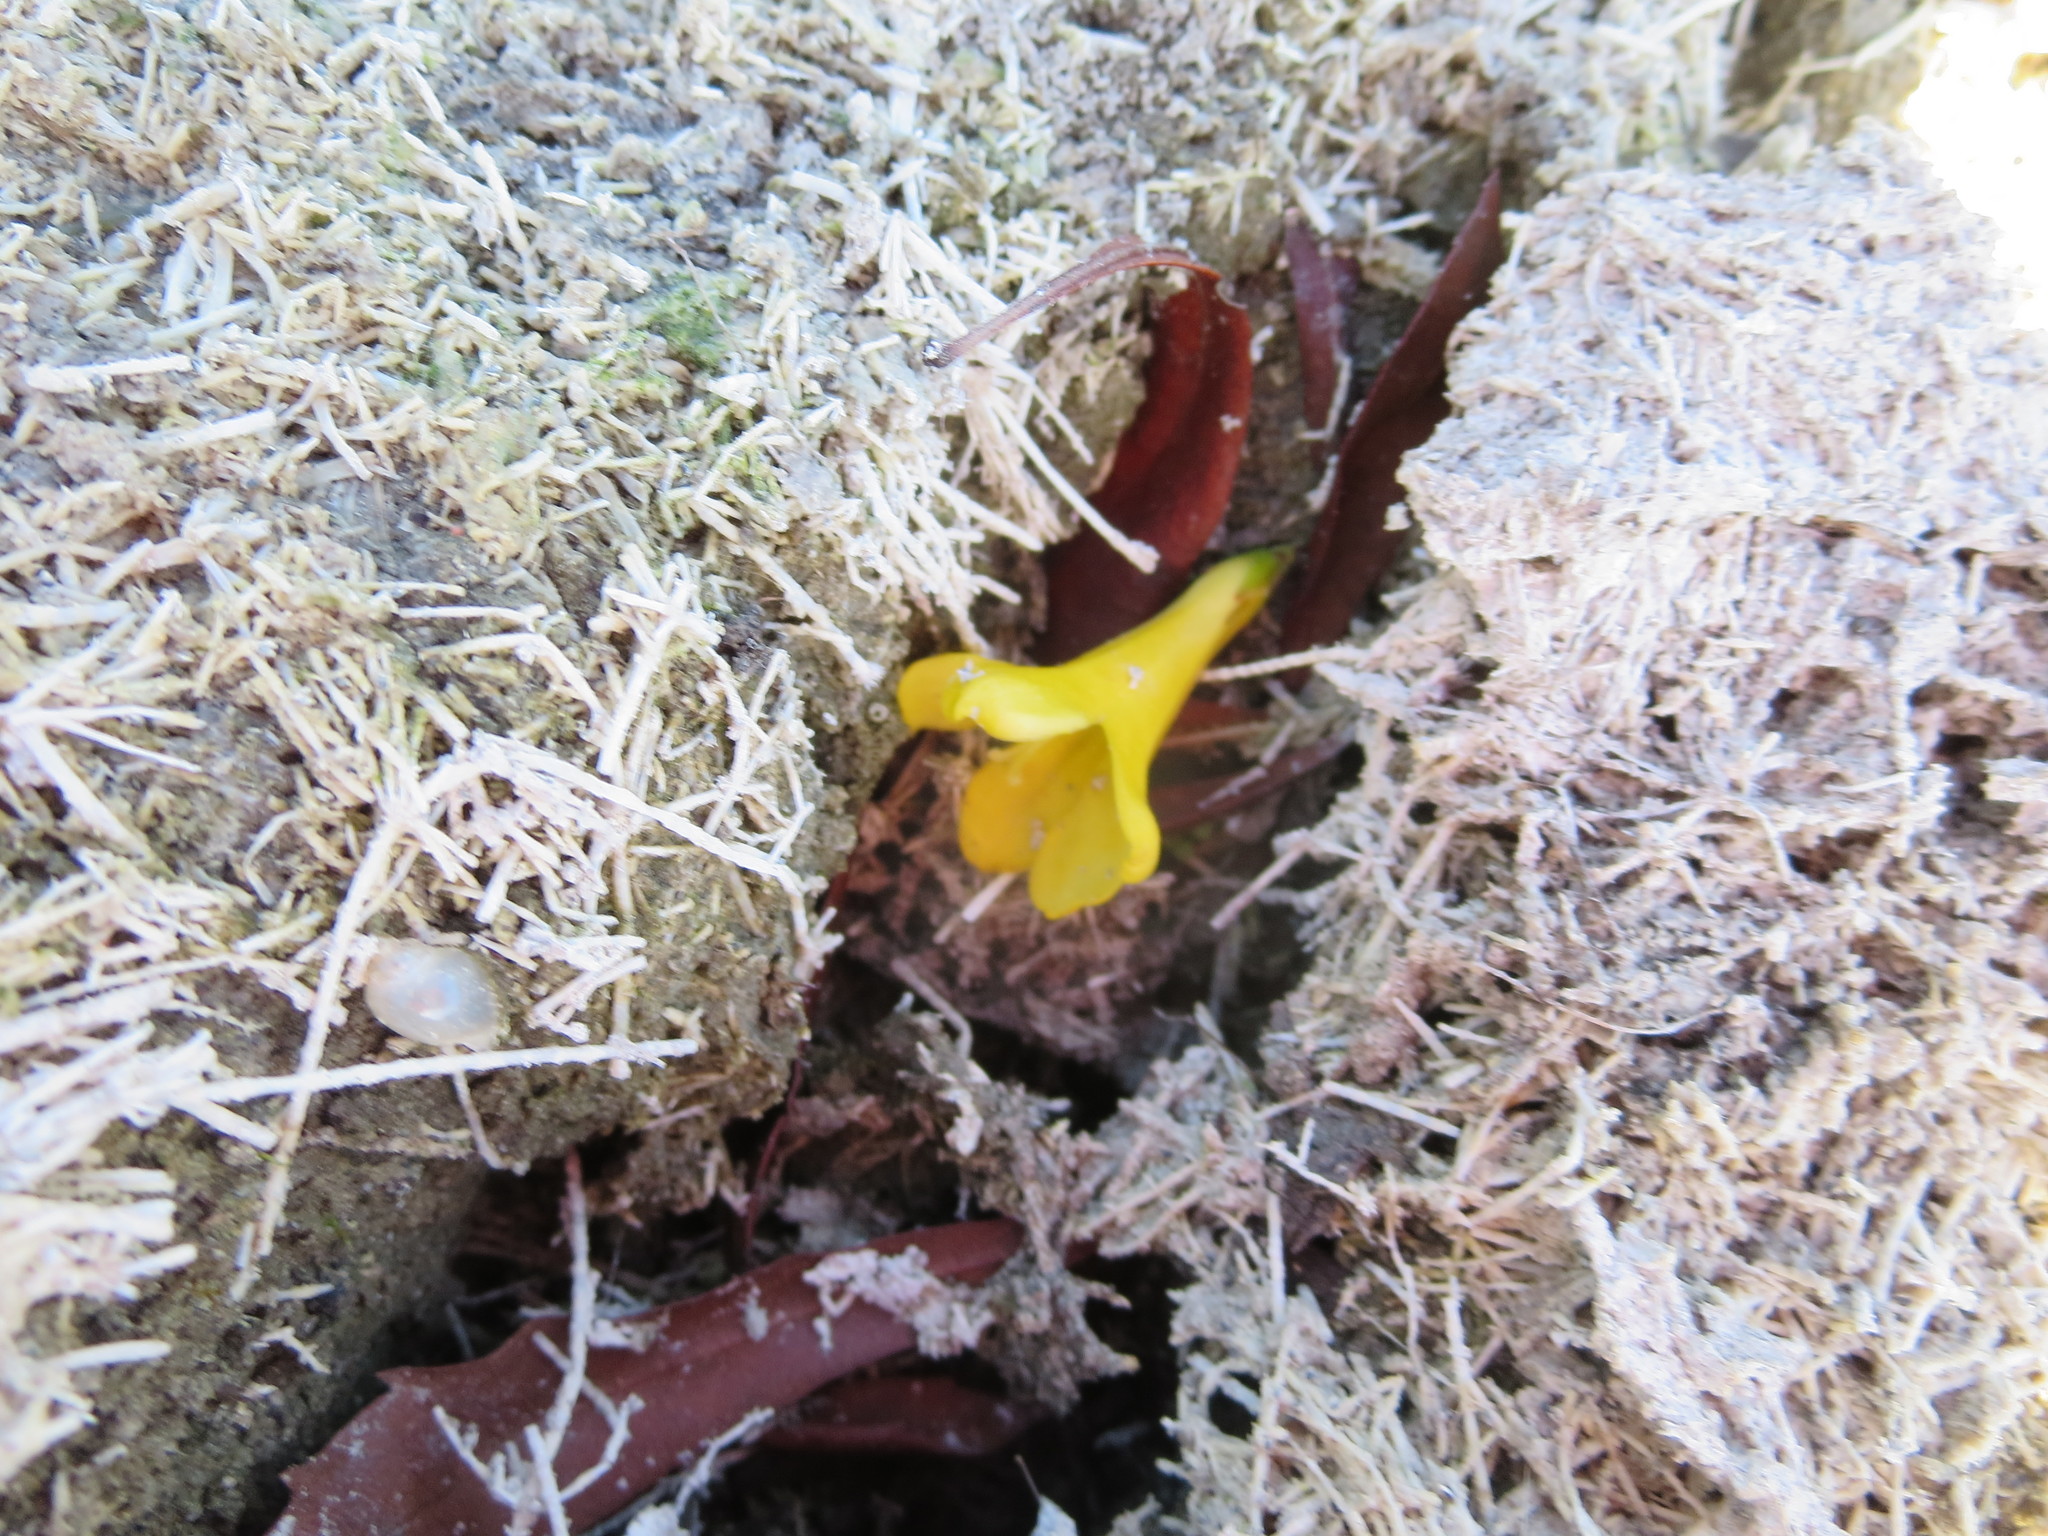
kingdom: Plantae
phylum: Tracheophyta
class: Magnoliopsida
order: Gentianales
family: Gelsemiaceae
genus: Gelsemium
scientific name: Gelsemium sempervirens
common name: Carolina-jasmine
